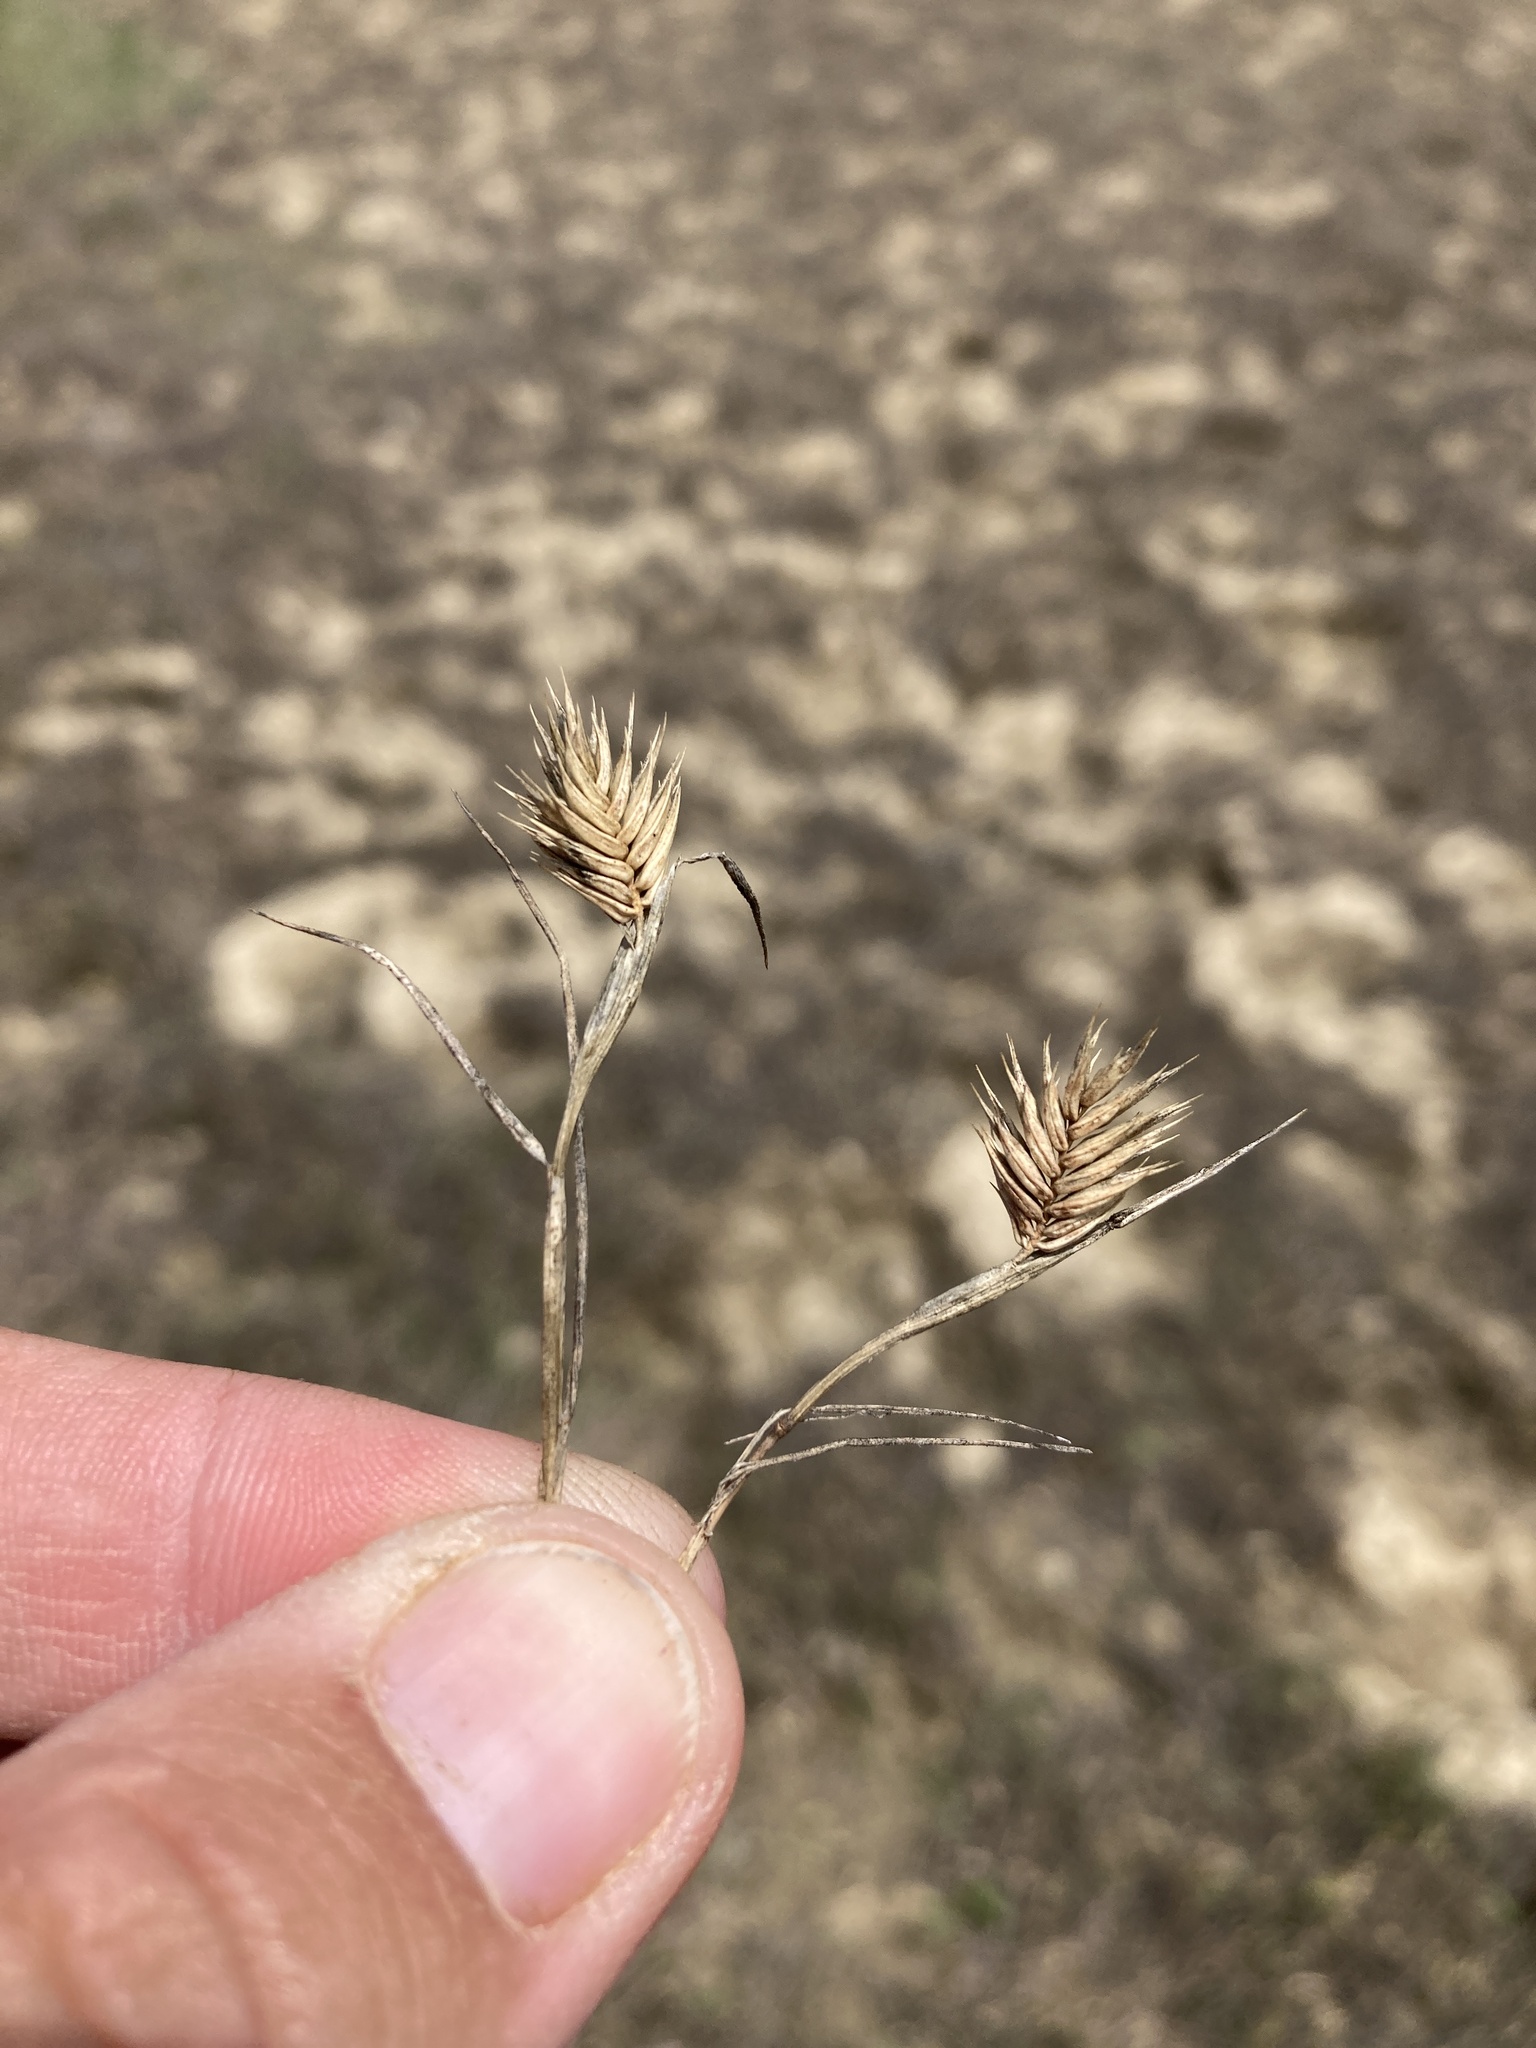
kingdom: Plantae
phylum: Tracheophyta
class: Liliopsida
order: Poales
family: Poaceae
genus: Eremopyrum
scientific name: Eremopyrum triticeum
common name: Annual wheatgrass
